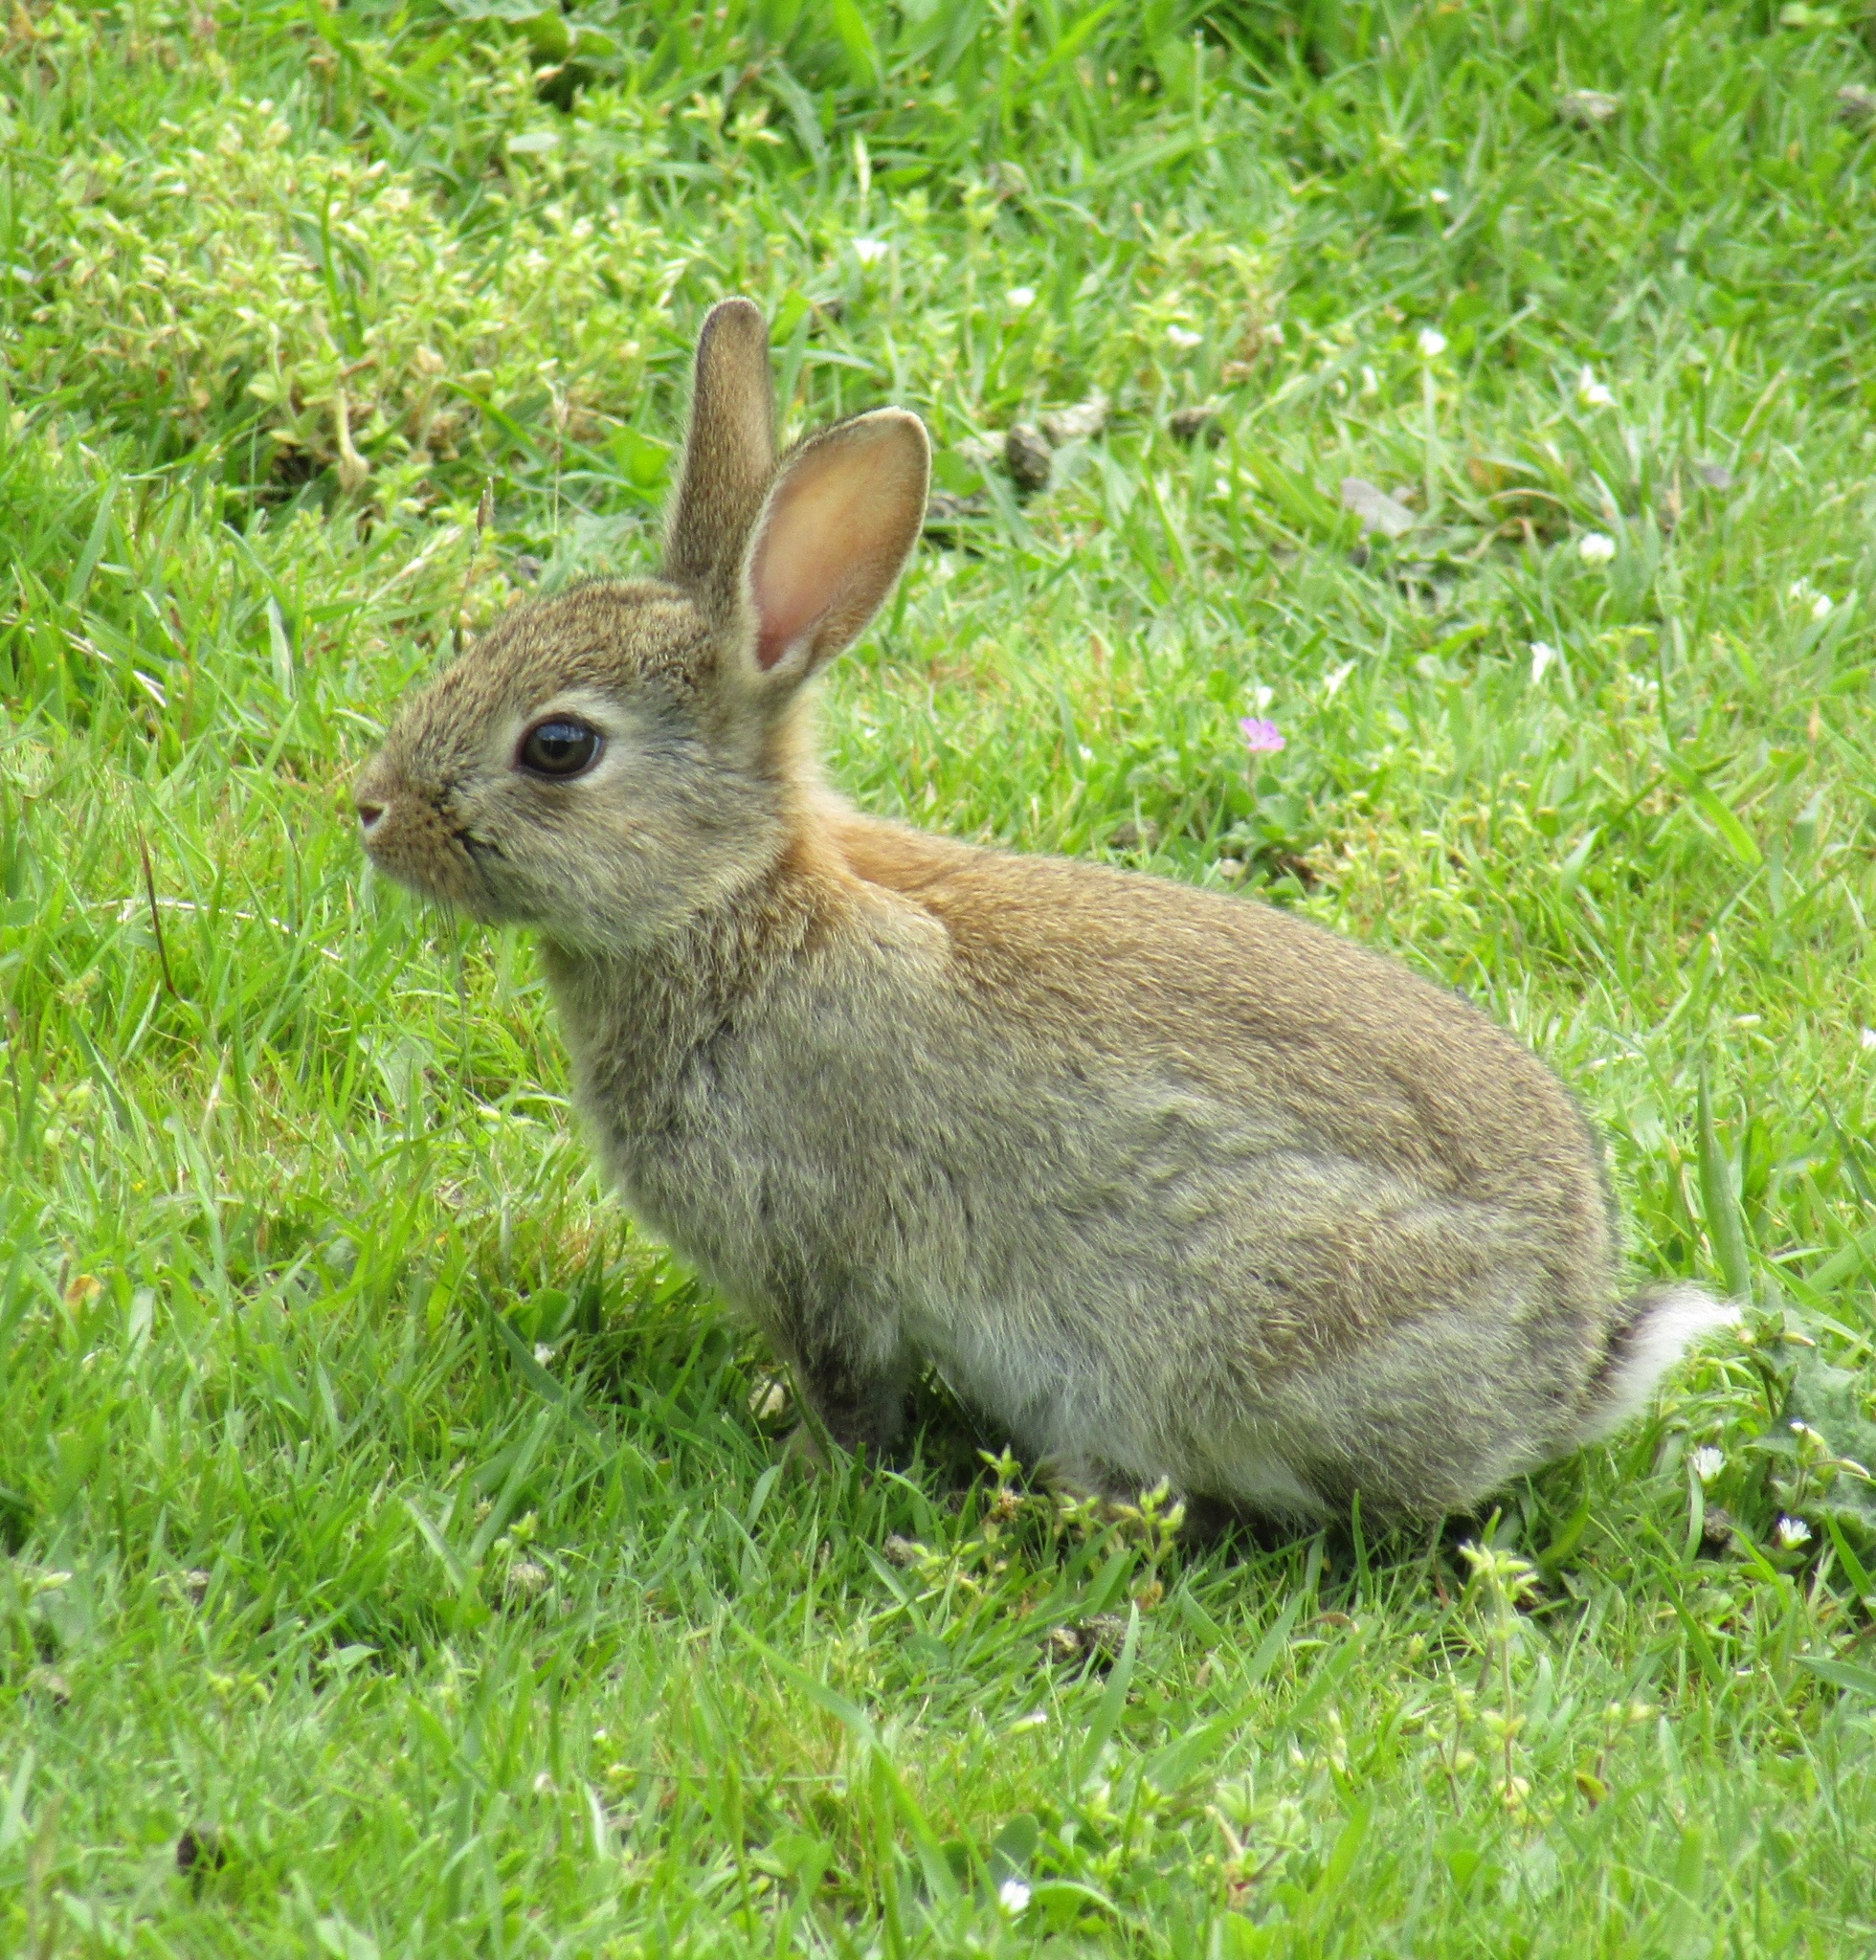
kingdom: Animalia
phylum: Chordata
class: Mammalia
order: Lagomorpha
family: Leporidae
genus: Oryctolagus
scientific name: Oryctolagus cuniculus
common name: European rabbit
